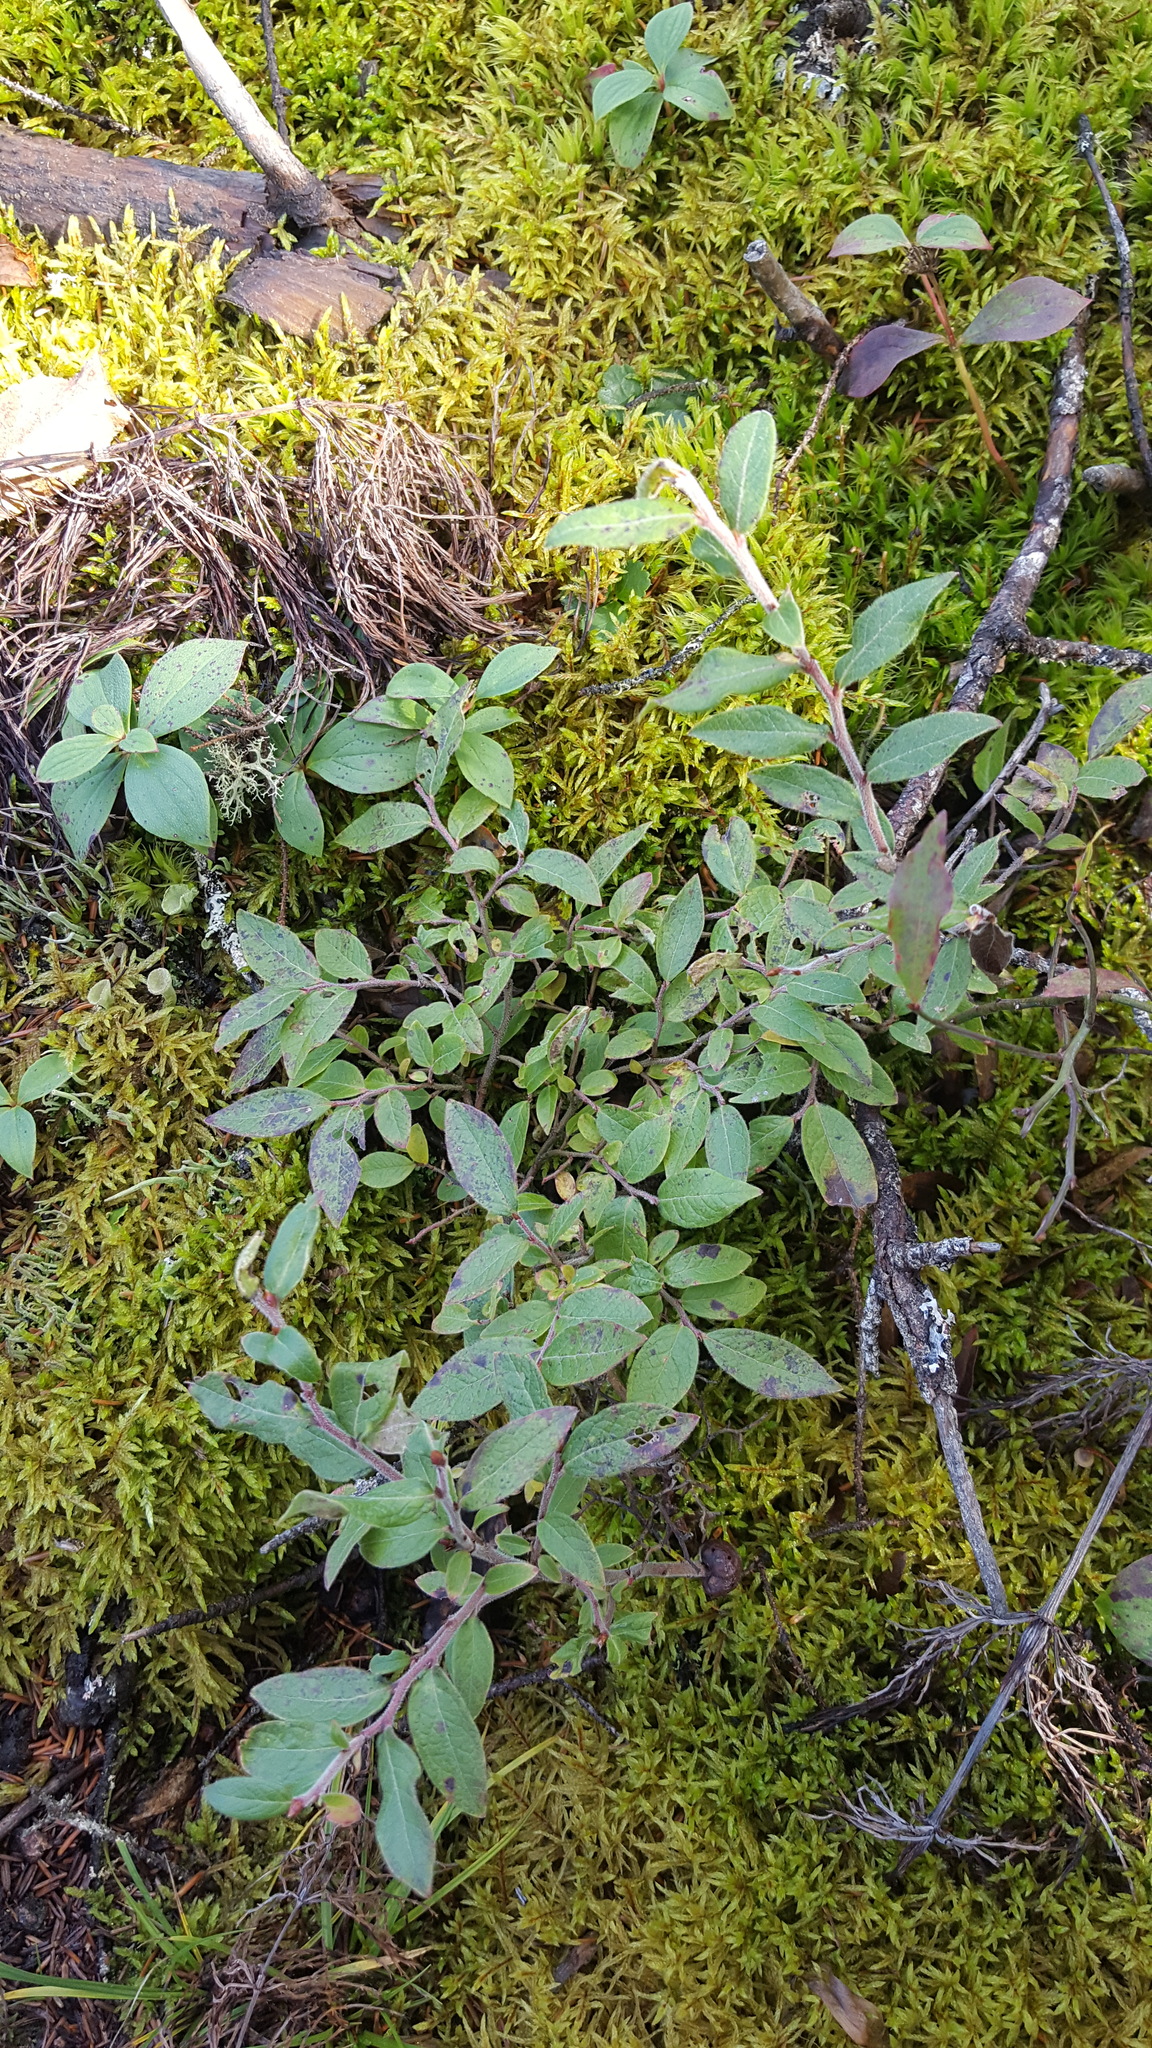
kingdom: Plantae
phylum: Tracheophyta
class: Magnoliopsida
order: Ericales
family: Ericaceae
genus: Vaccinium
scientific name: Vaccinium myrtilloides
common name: Canada blueberry
